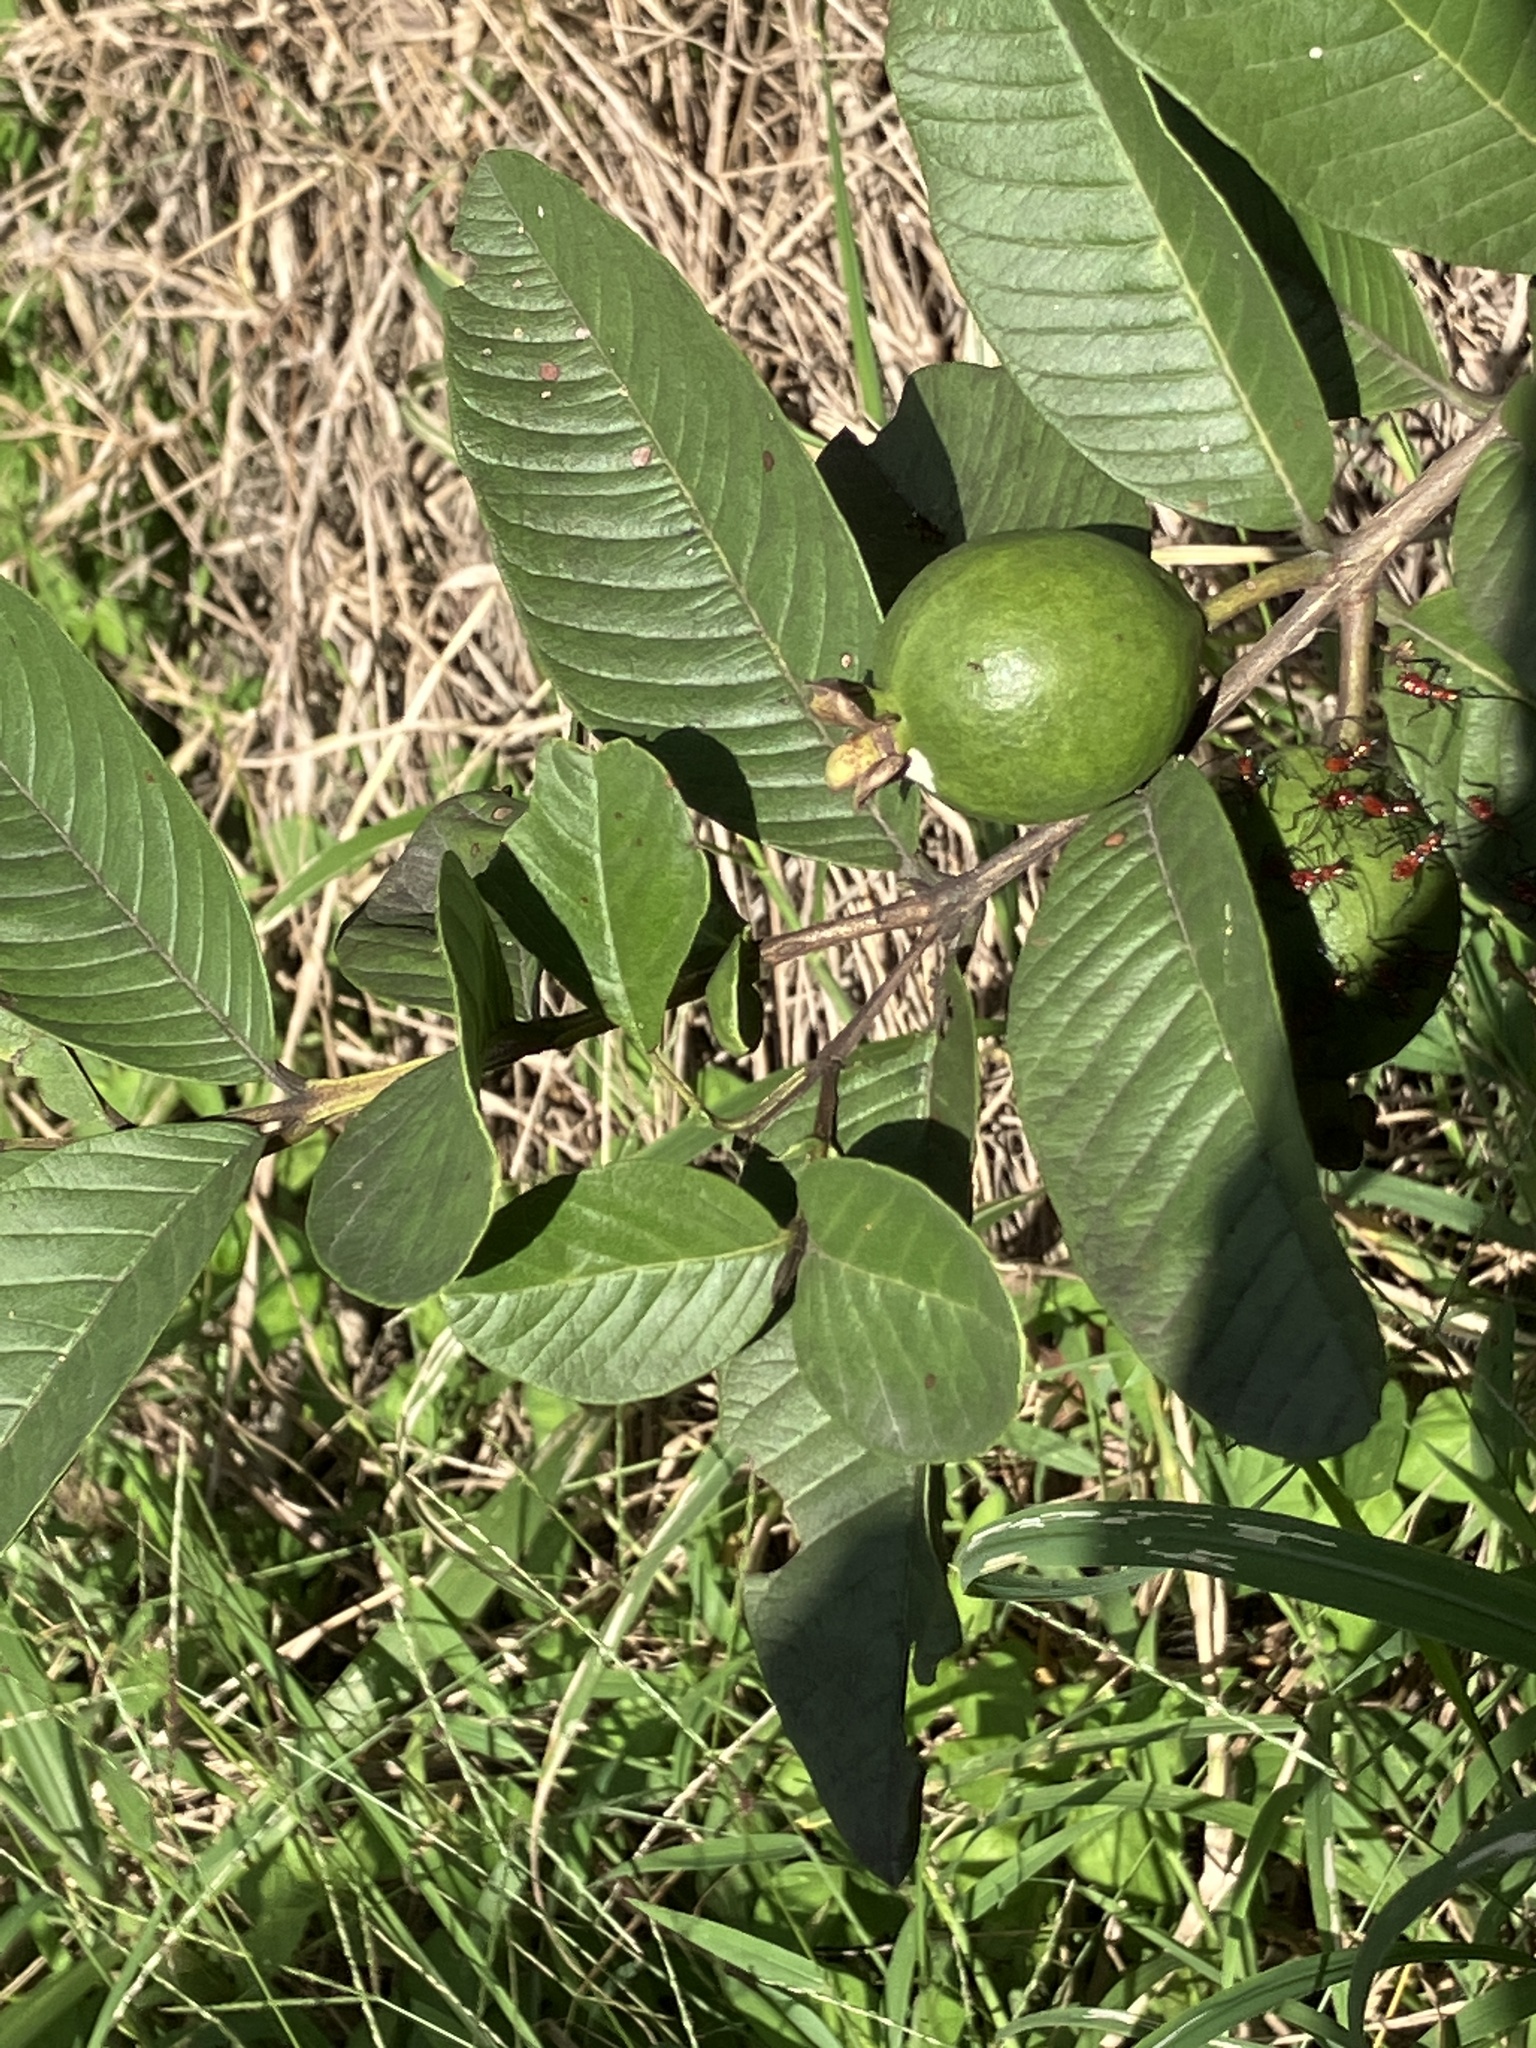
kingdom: Plantae
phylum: Tracheophyta
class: Magnoliopsida
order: Myrtales
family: Myrtaceae
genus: Psidium
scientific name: Psidium guajava
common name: Guava
